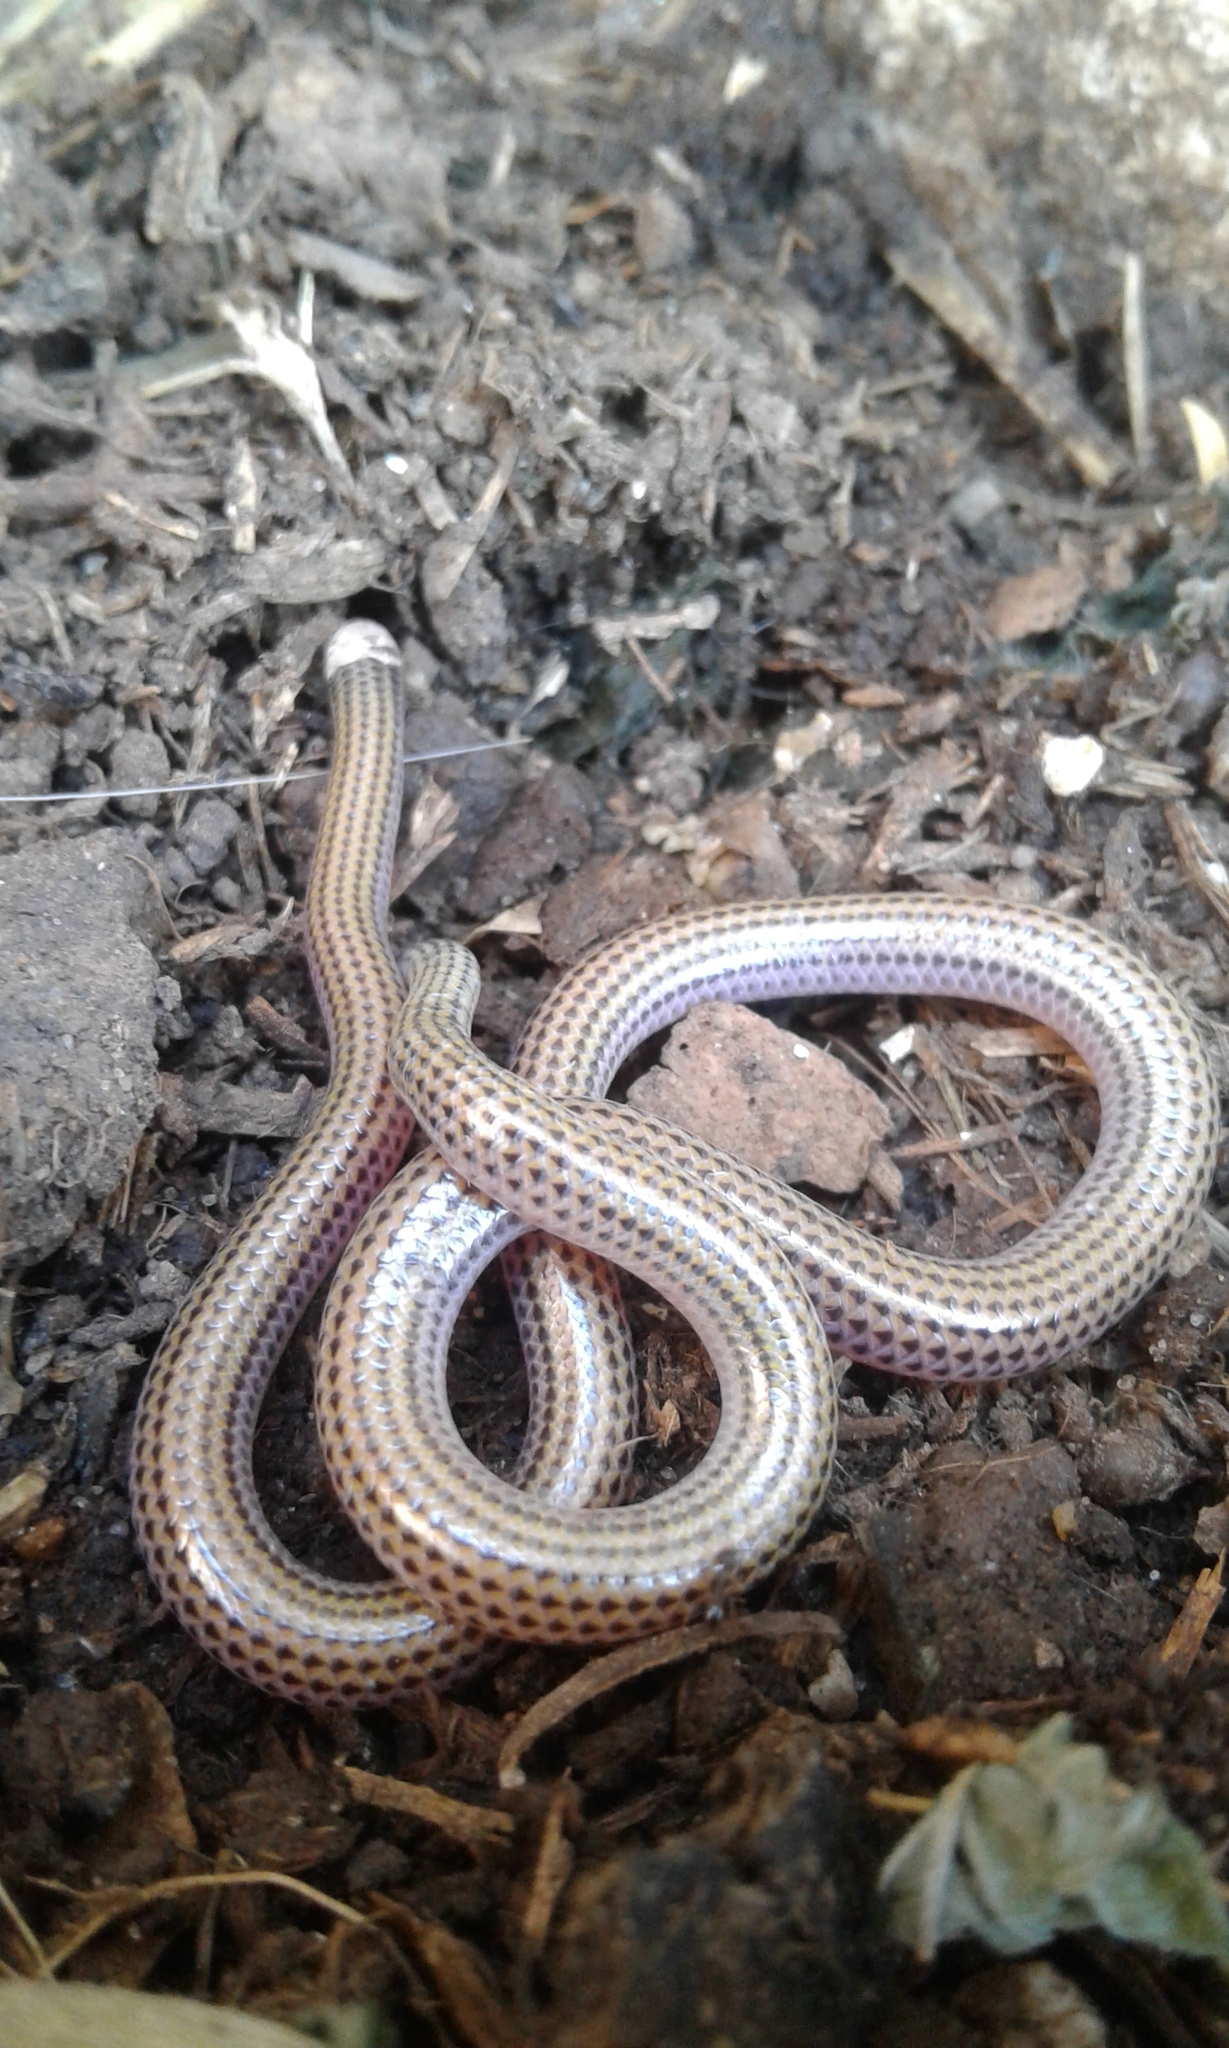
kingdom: Animalia
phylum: Chordata
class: Squamata
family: Leptotyphlopidae
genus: Epictia
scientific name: Epictia albipuncta
